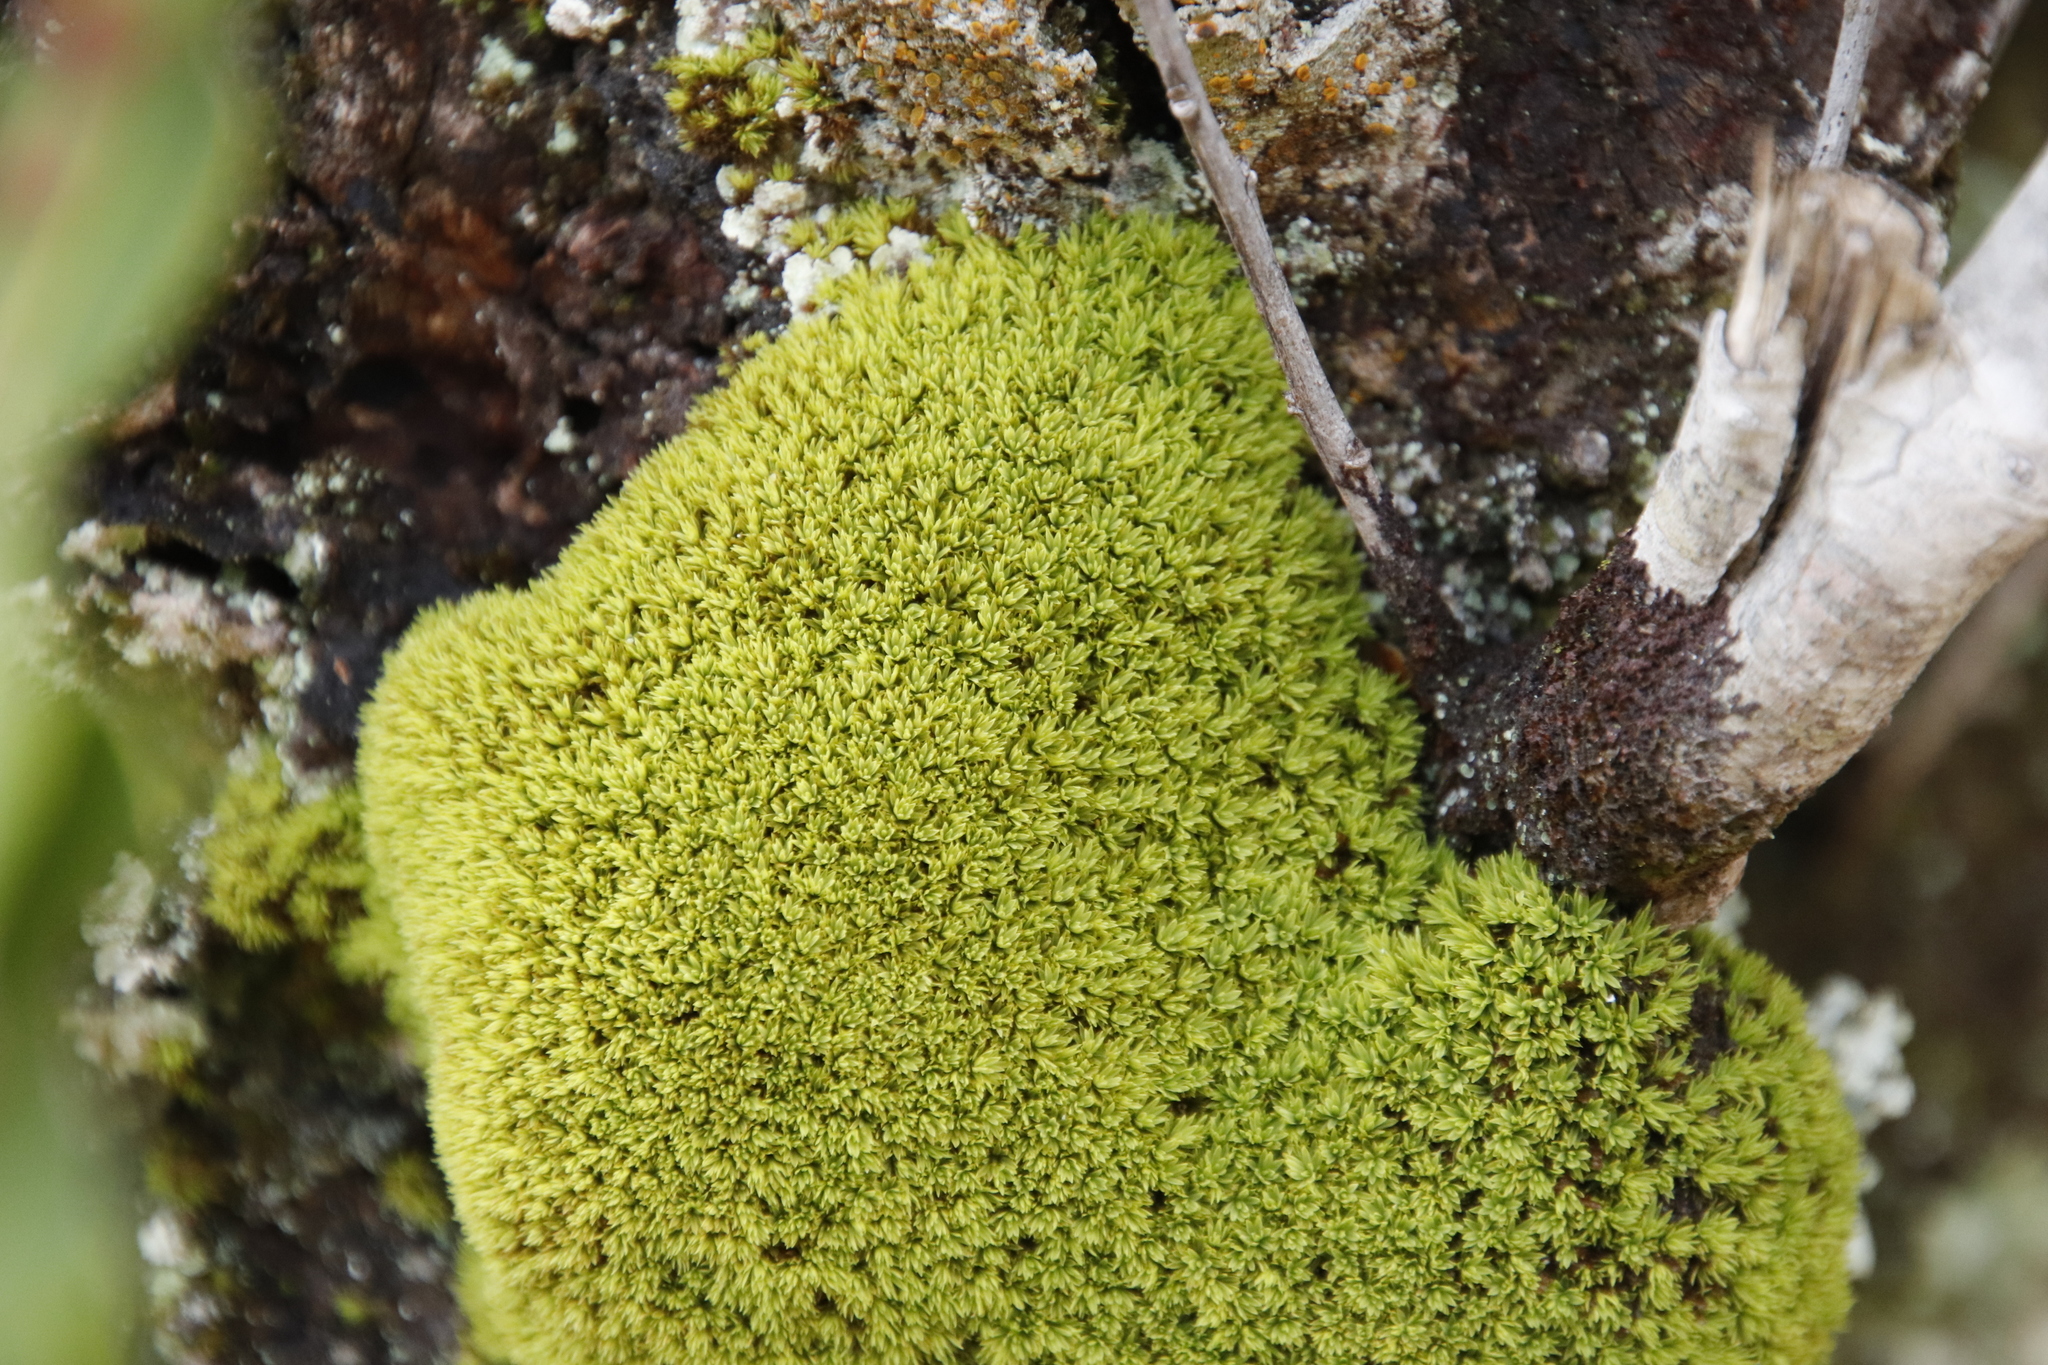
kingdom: Plantae
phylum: Bryophyta
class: Bryopsida
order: Dicranales
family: Hypodontiaceae
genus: Hypodontium
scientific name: Hypodontium pomiforme
